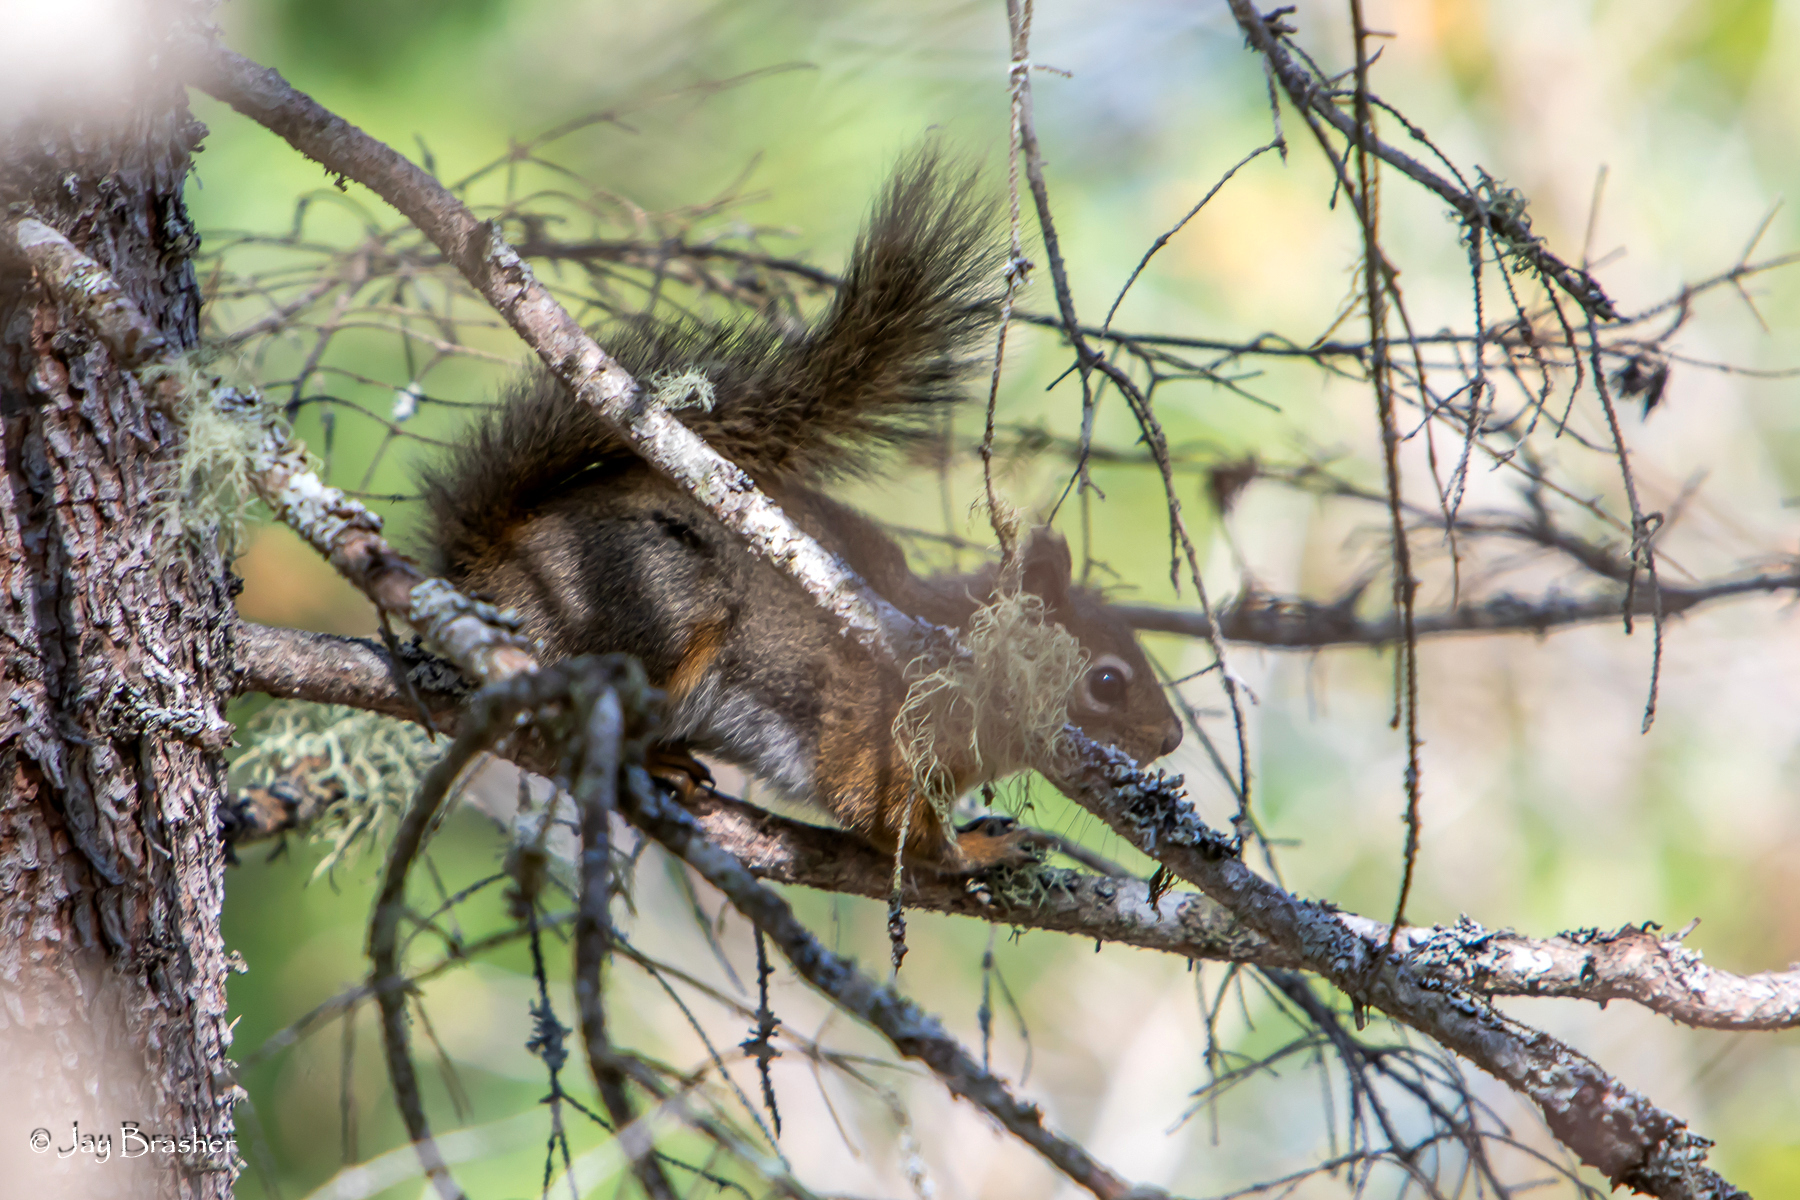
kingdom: Animalia
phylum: Chordata
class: Mammalia
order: Rodentia
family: Sciuridae
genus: Tamiasciurus
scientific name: Tamiasciurus hudsonicus
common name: Red squirrel
